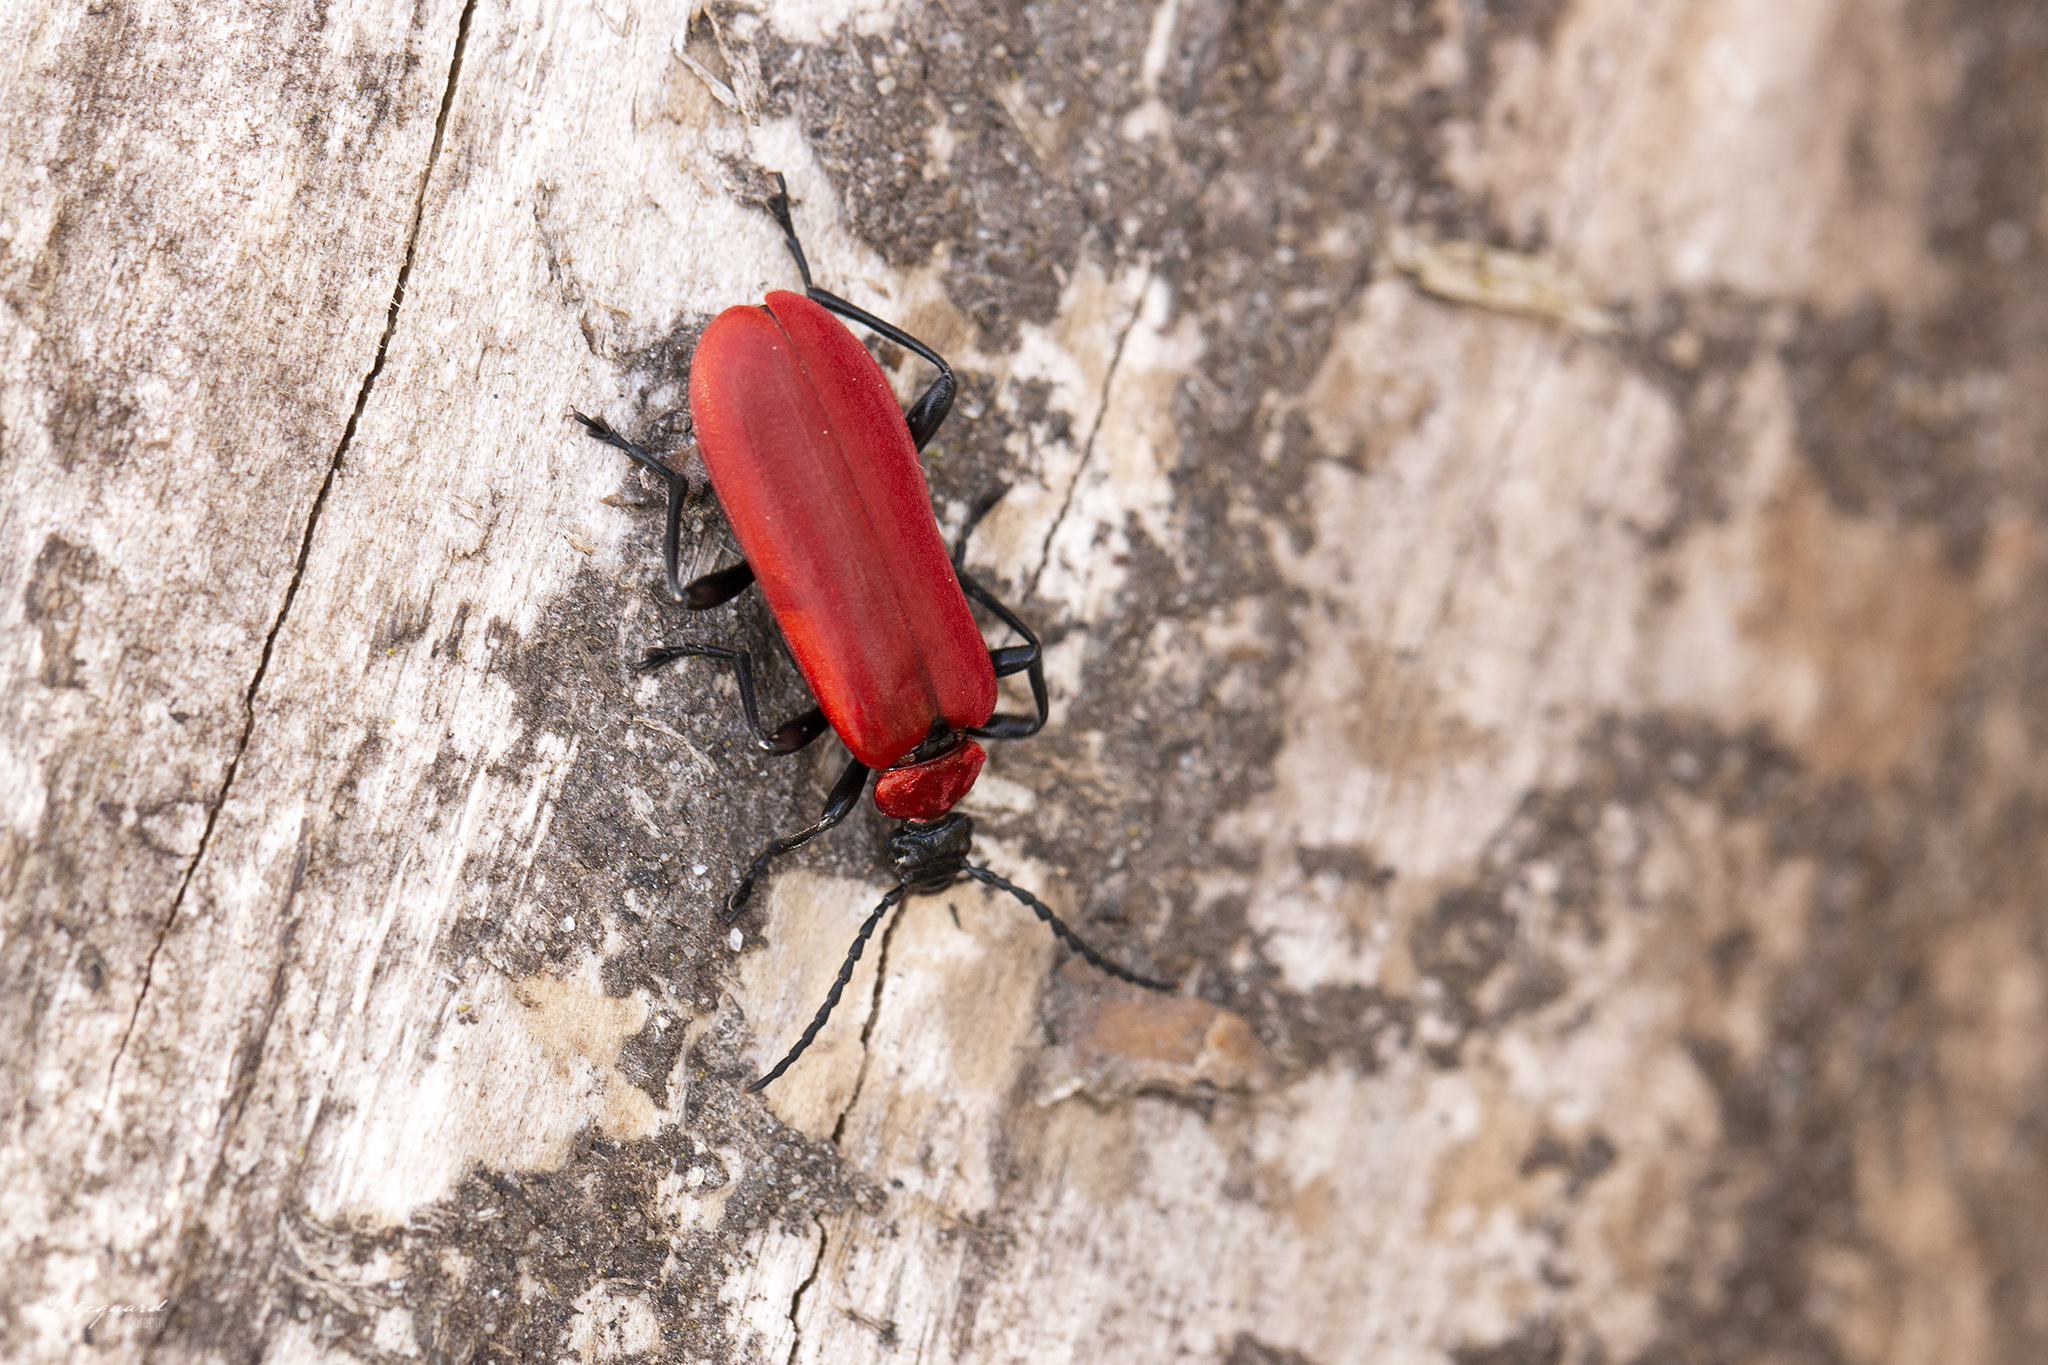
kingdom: Animalia
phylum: Arthropoda
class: Insecta
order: Coleoptera
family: Pyrochroidae
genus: Pyrochroa
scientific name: Pyrochroa coccinea
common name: Black-headed cardinal beetle
